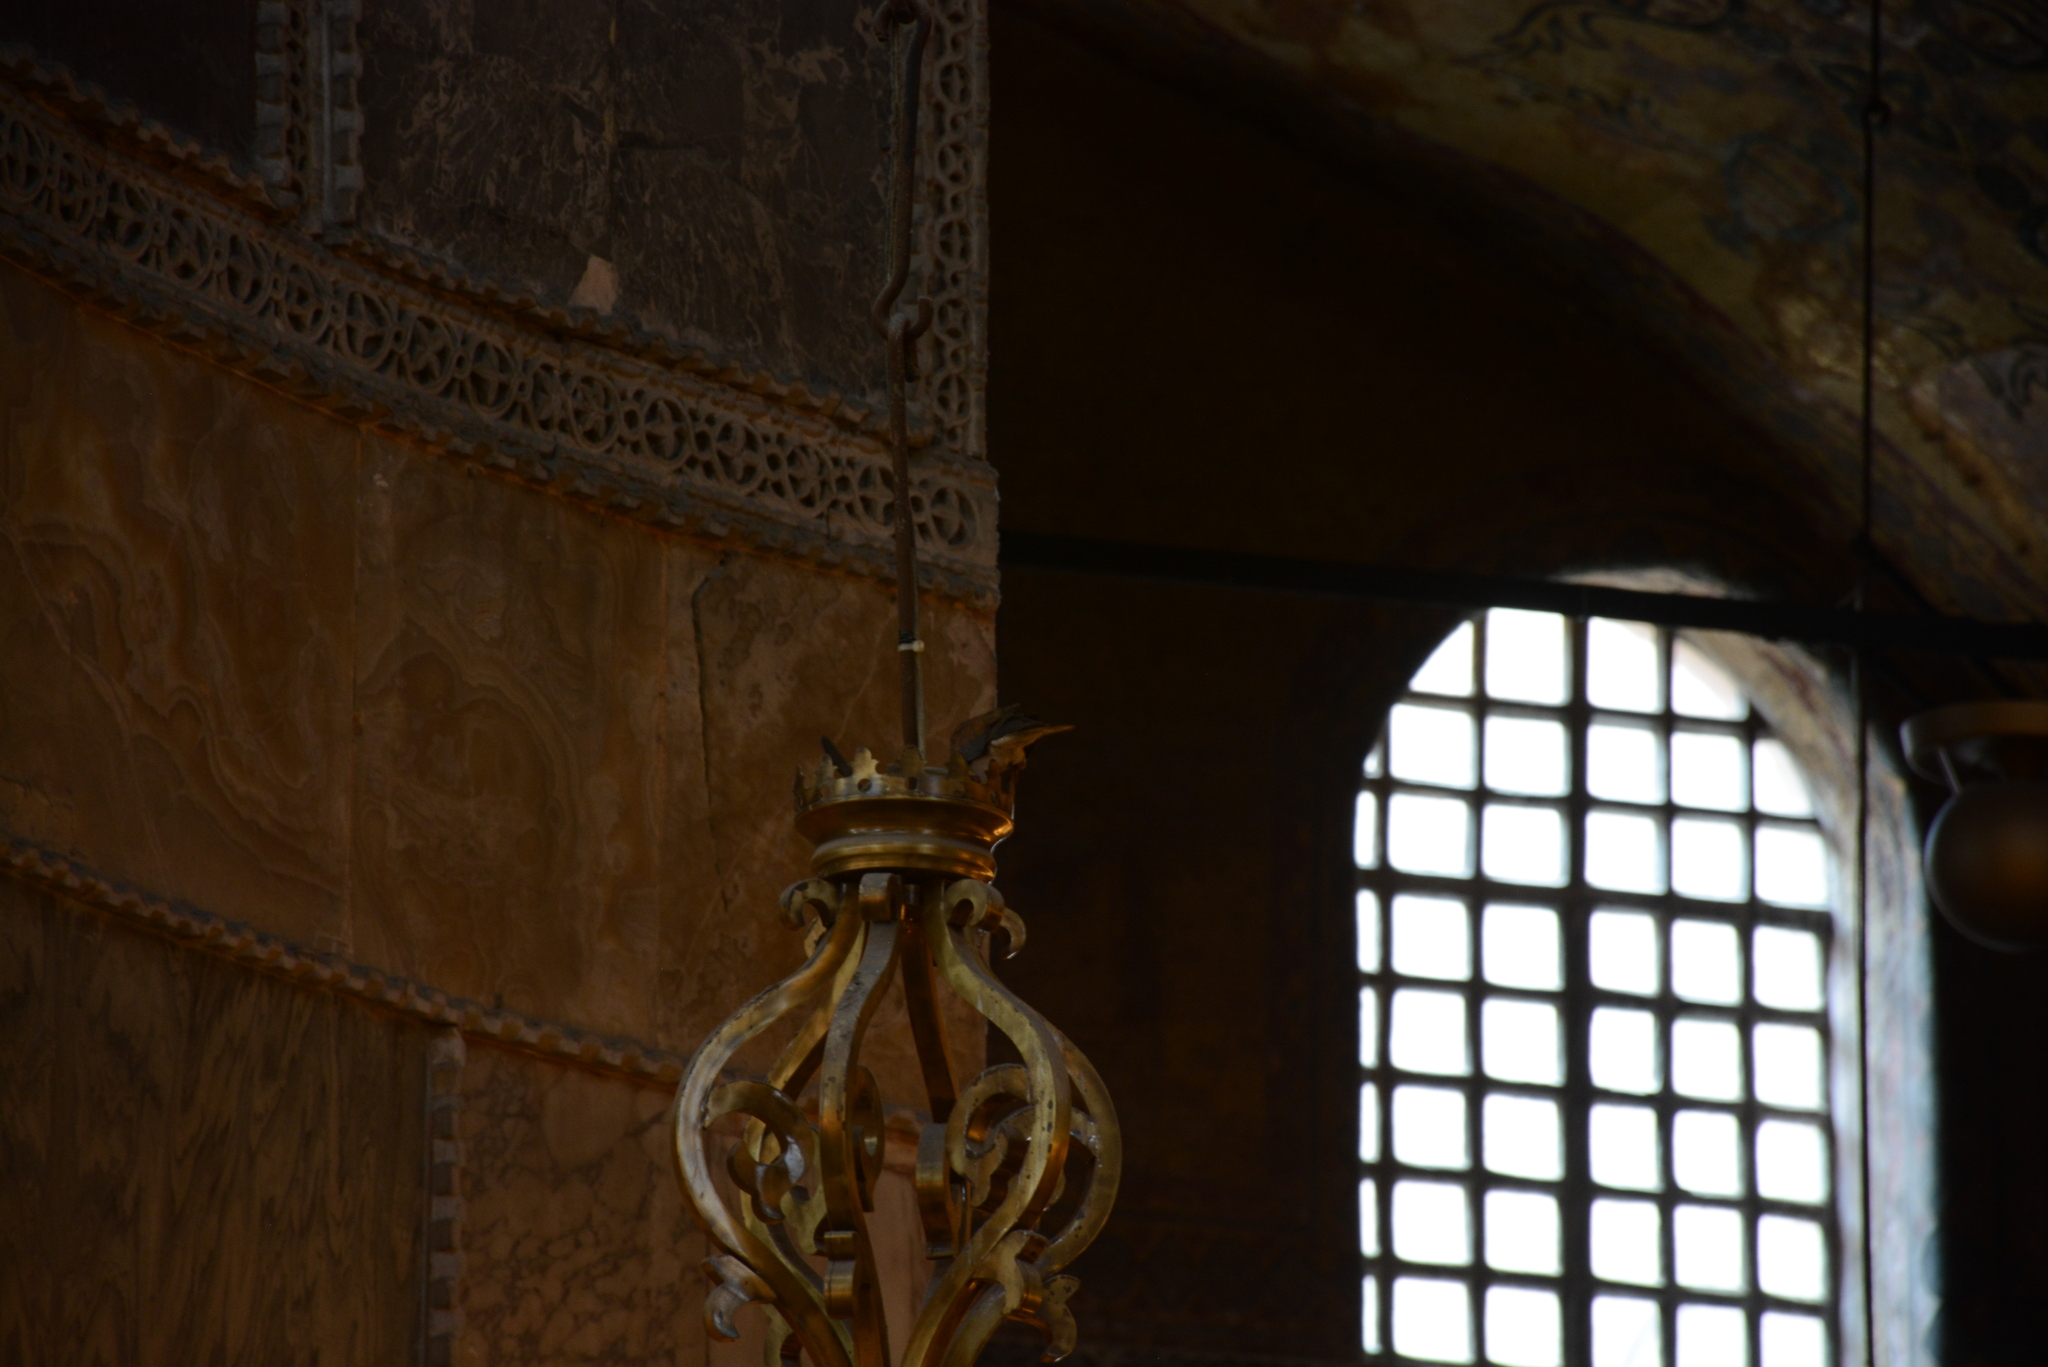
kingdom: Animalia
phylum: Chordata
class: Aves
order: Columbiformes
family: Columbidae
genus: Spilopelia
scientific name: Spilopelia senegalensis
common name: Laughing dove
